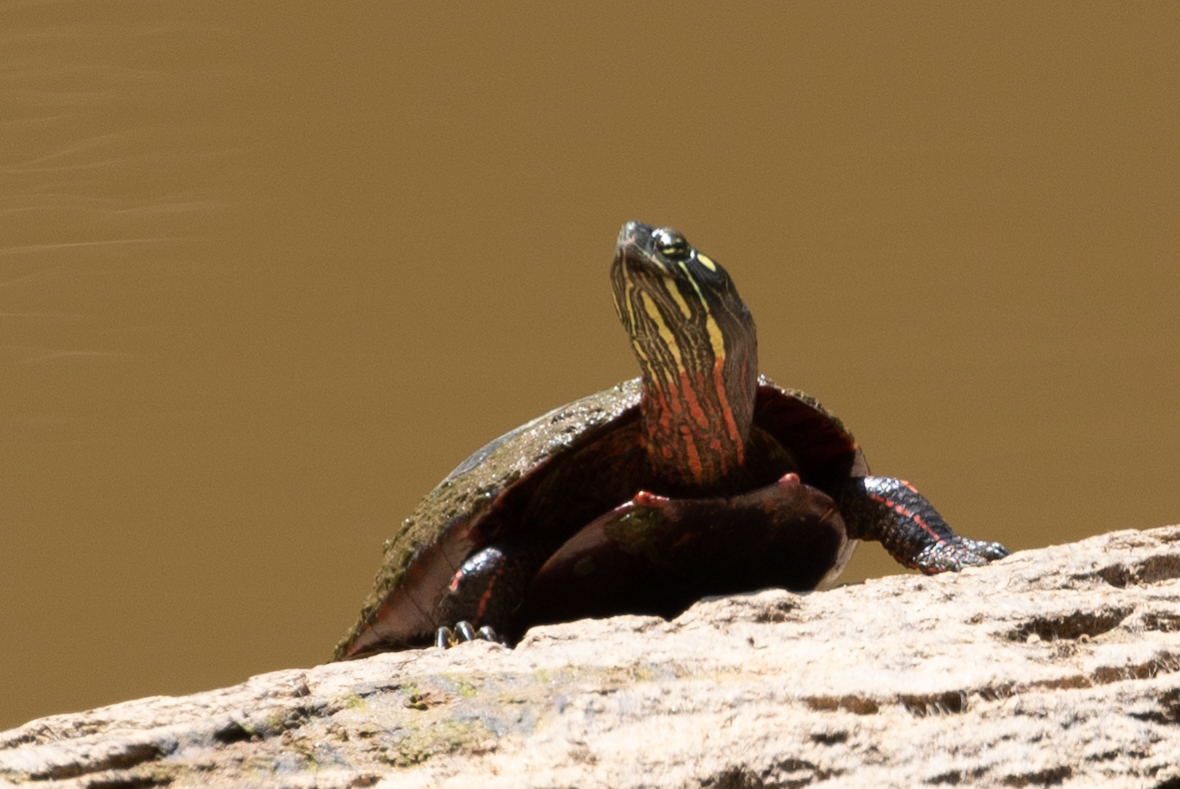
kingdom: Animalia
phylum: Chordata
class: Testudines
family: Emydidae
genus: Chrysemys
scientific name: Chrysemys picta
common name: Painted turtle
